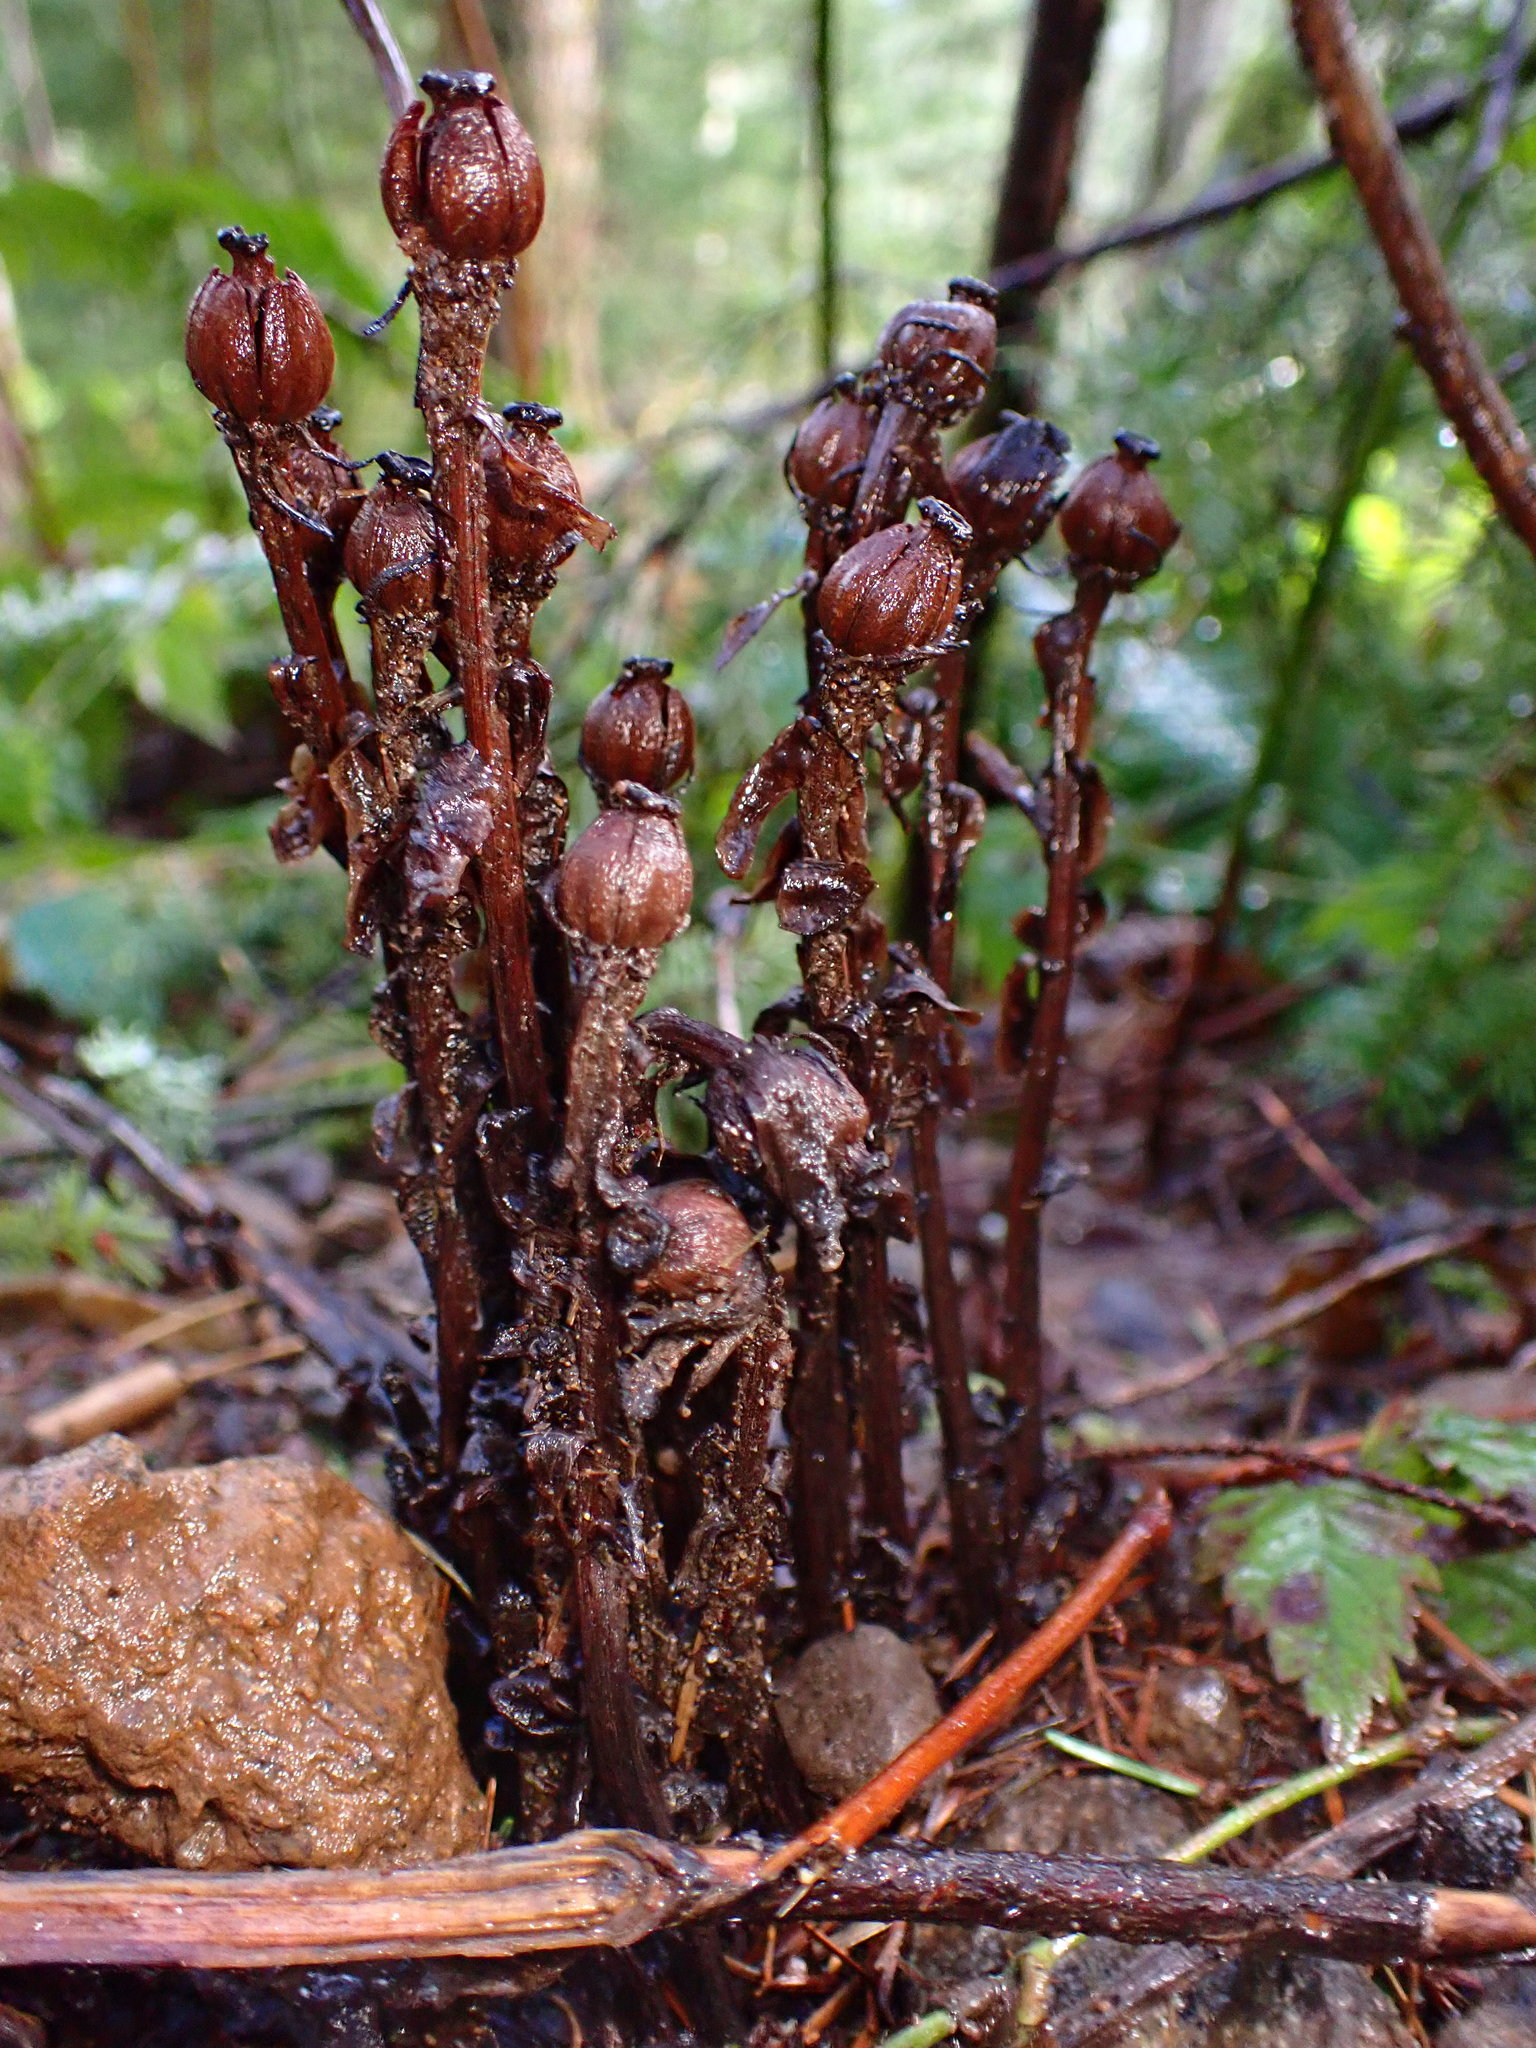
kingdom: Plantae
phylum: Tracheophyta
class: Magnoliopsida
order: Ericales
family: Ericaceae
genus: Monotropa
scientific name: Monotropa uniflora
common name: Convulsion root
